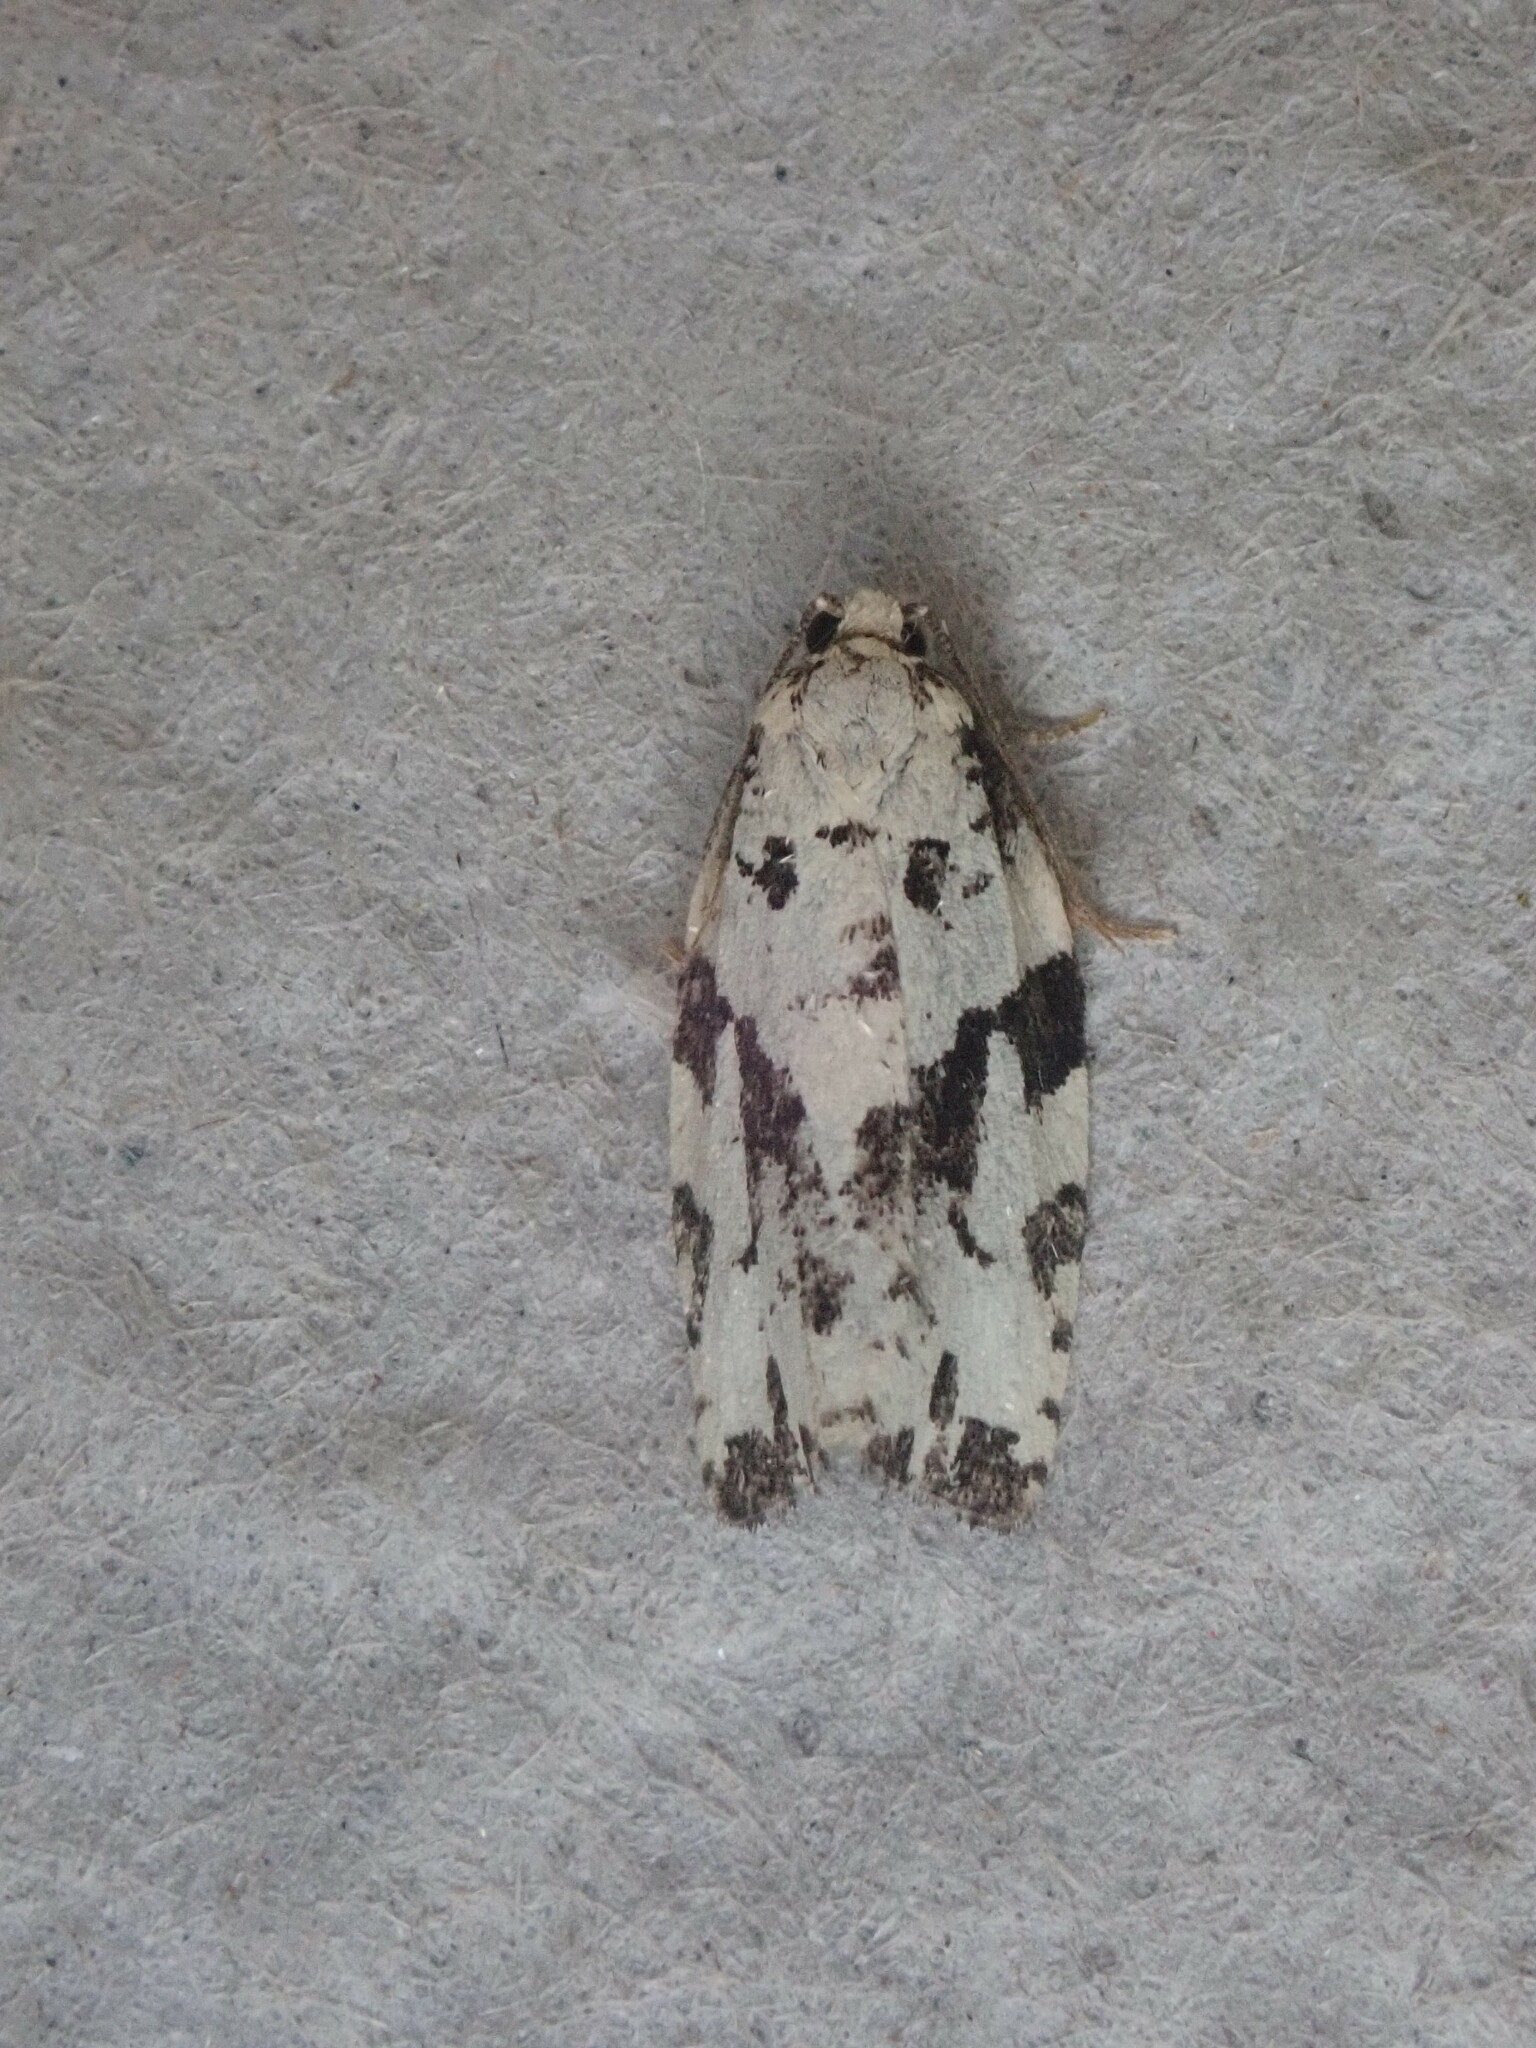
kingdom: Animalia
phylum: Arthropoda
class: Insecta
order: Lepidoptera
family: Tortricidae
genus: Archips
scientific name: Archips dissitana
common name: Boldly-marked archips moth
